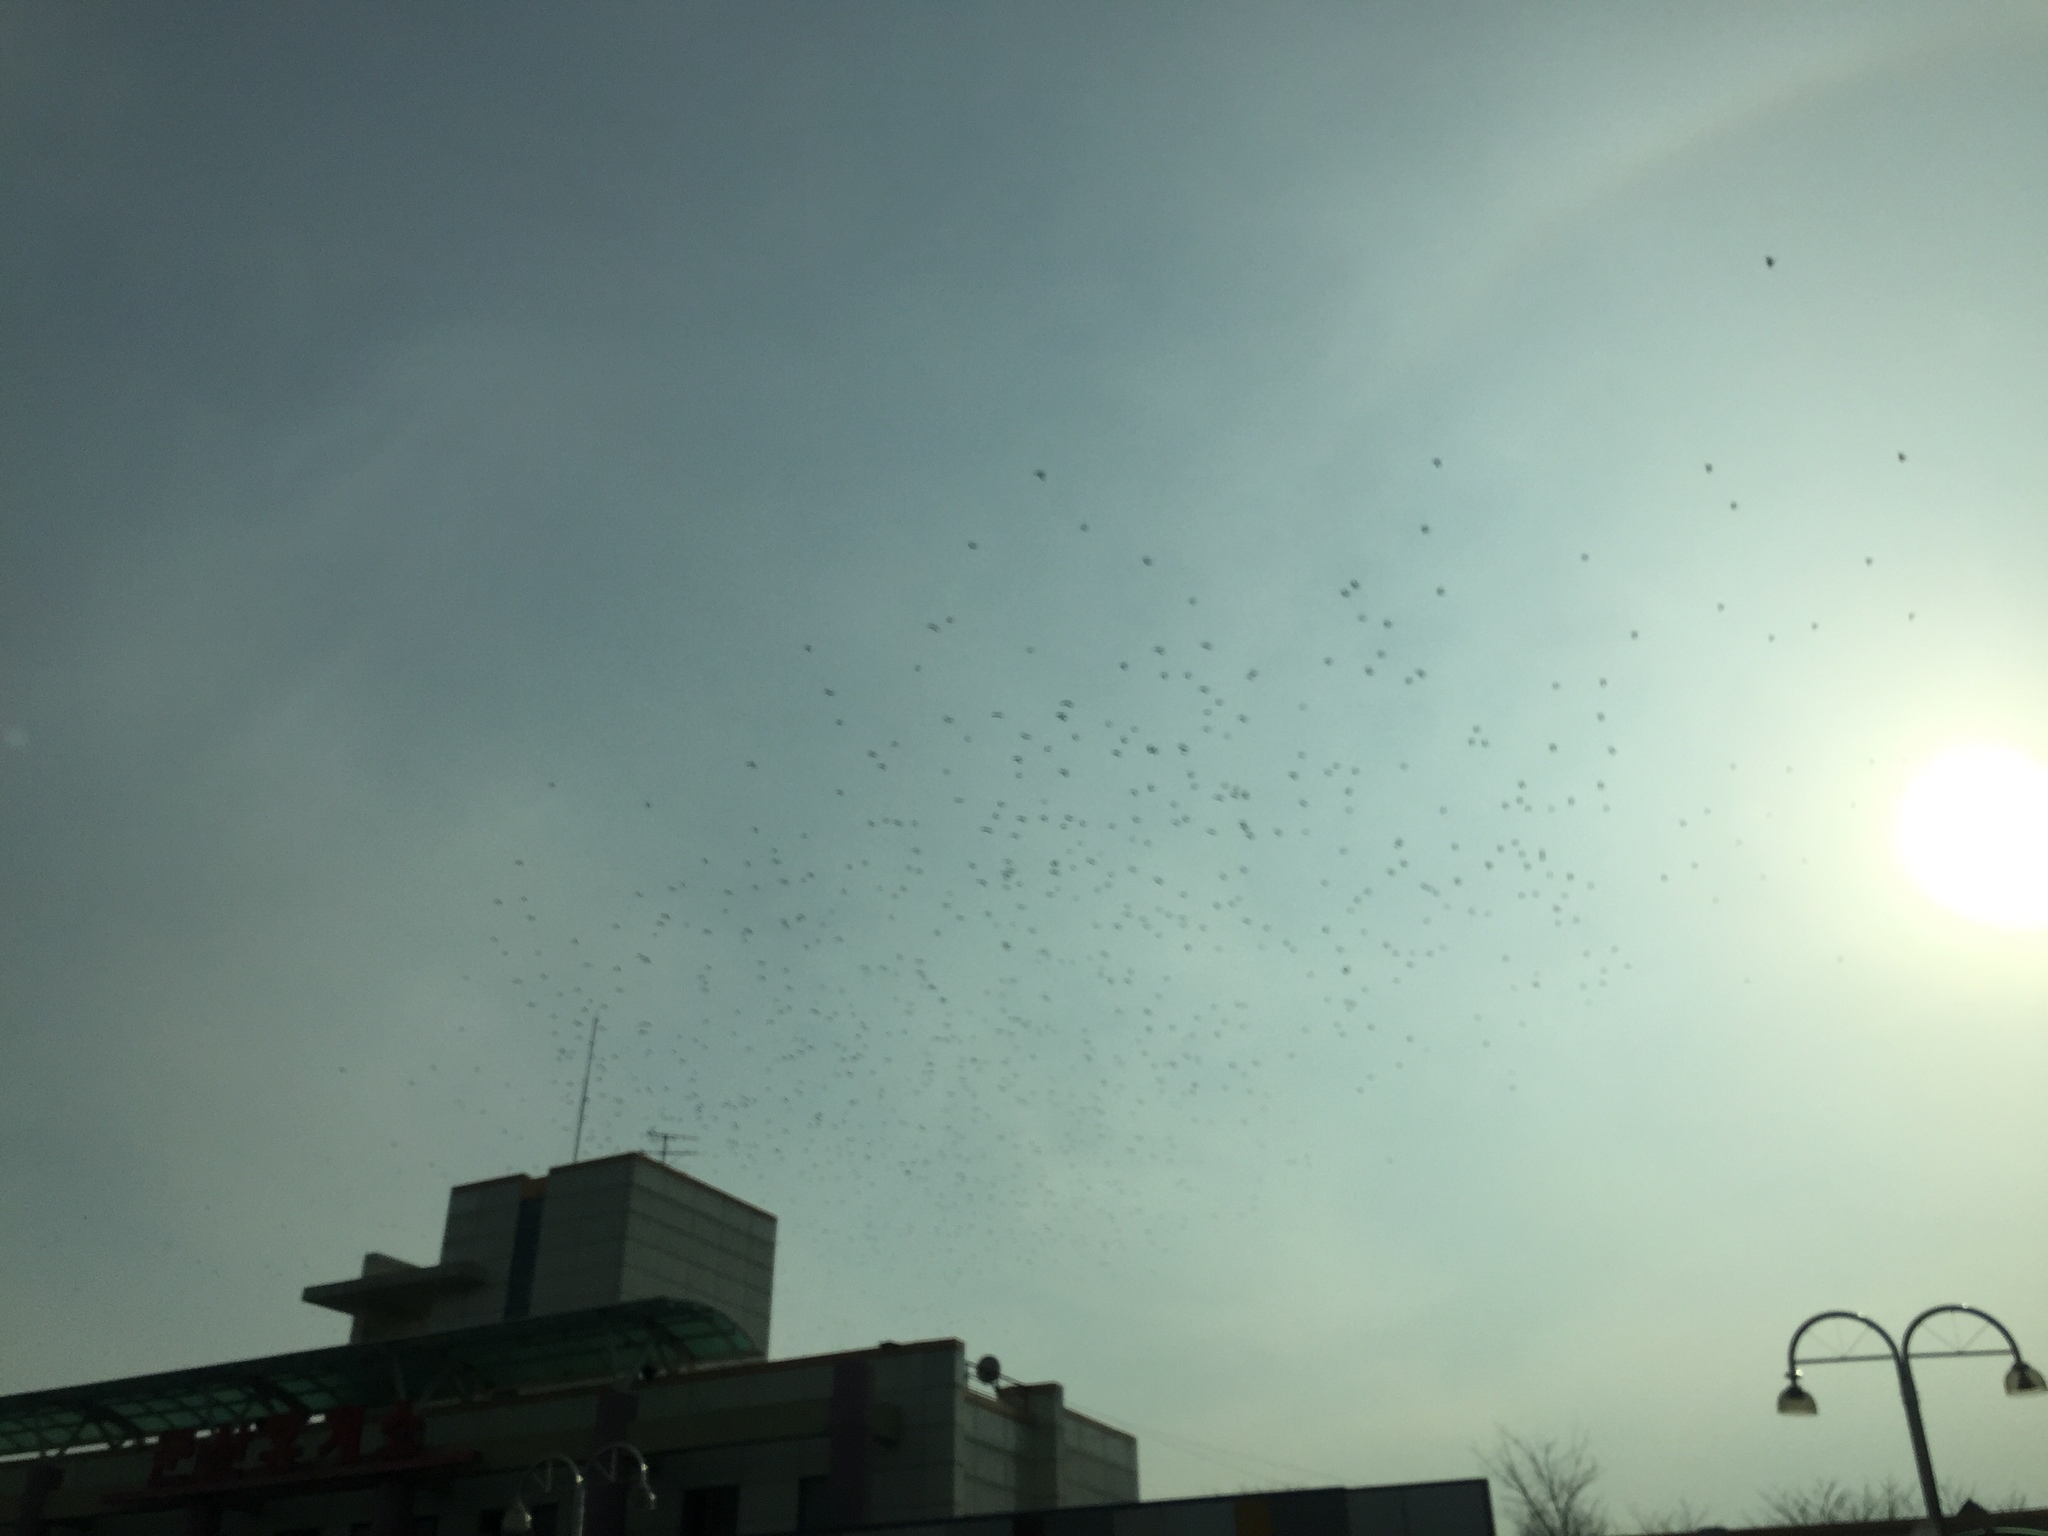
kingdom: Animalia
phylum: Chordata
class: Aves
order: Passeriformes
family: Corvidae
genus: Corvus
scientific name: Corvus frugilegus
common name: Rook
